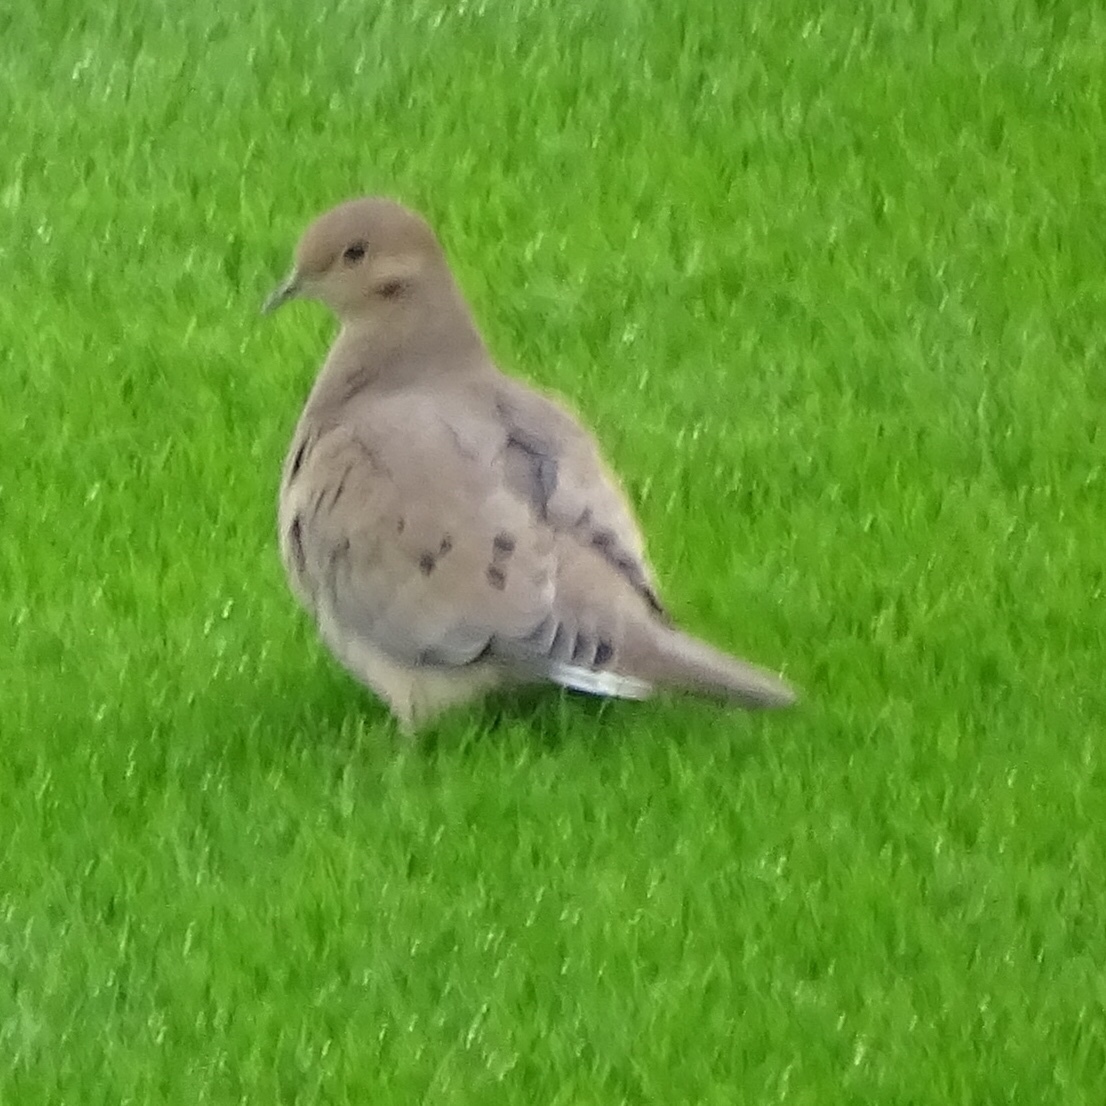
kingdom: Animalia
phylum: Chordata
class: Aves
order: Columbiformes
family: Columbidae
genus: Zenaida
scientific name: Zenaida macroura
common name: Mourning dove
